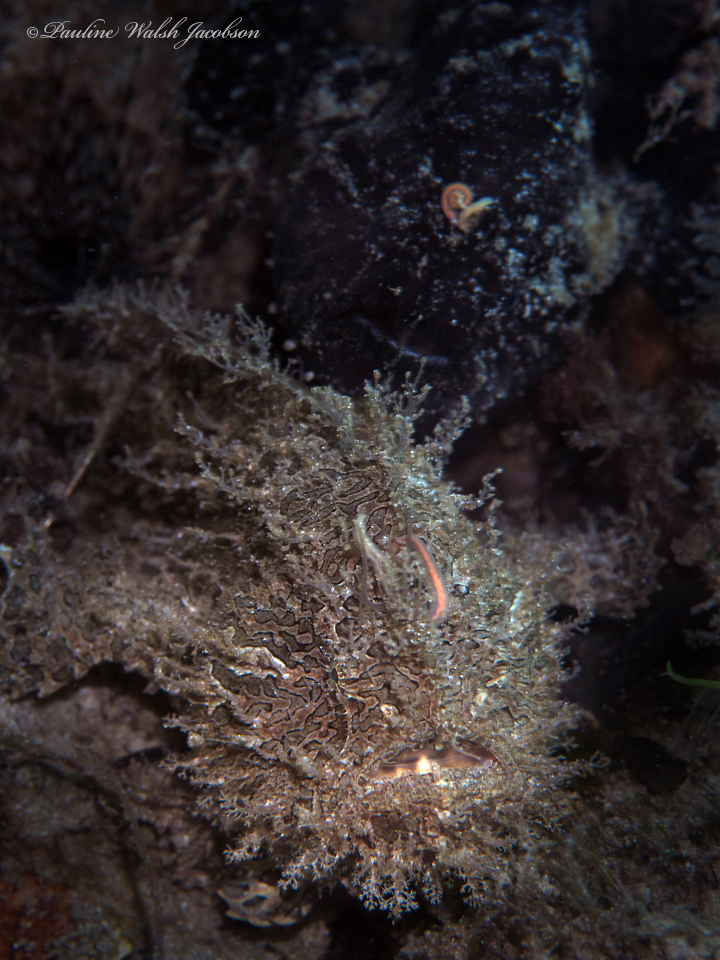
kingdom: Animalia
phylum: Chordata
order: Lophiiformes
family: Antennariidae
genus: Antennarius
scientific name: Antennarius striatus
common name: Striated frogfish
